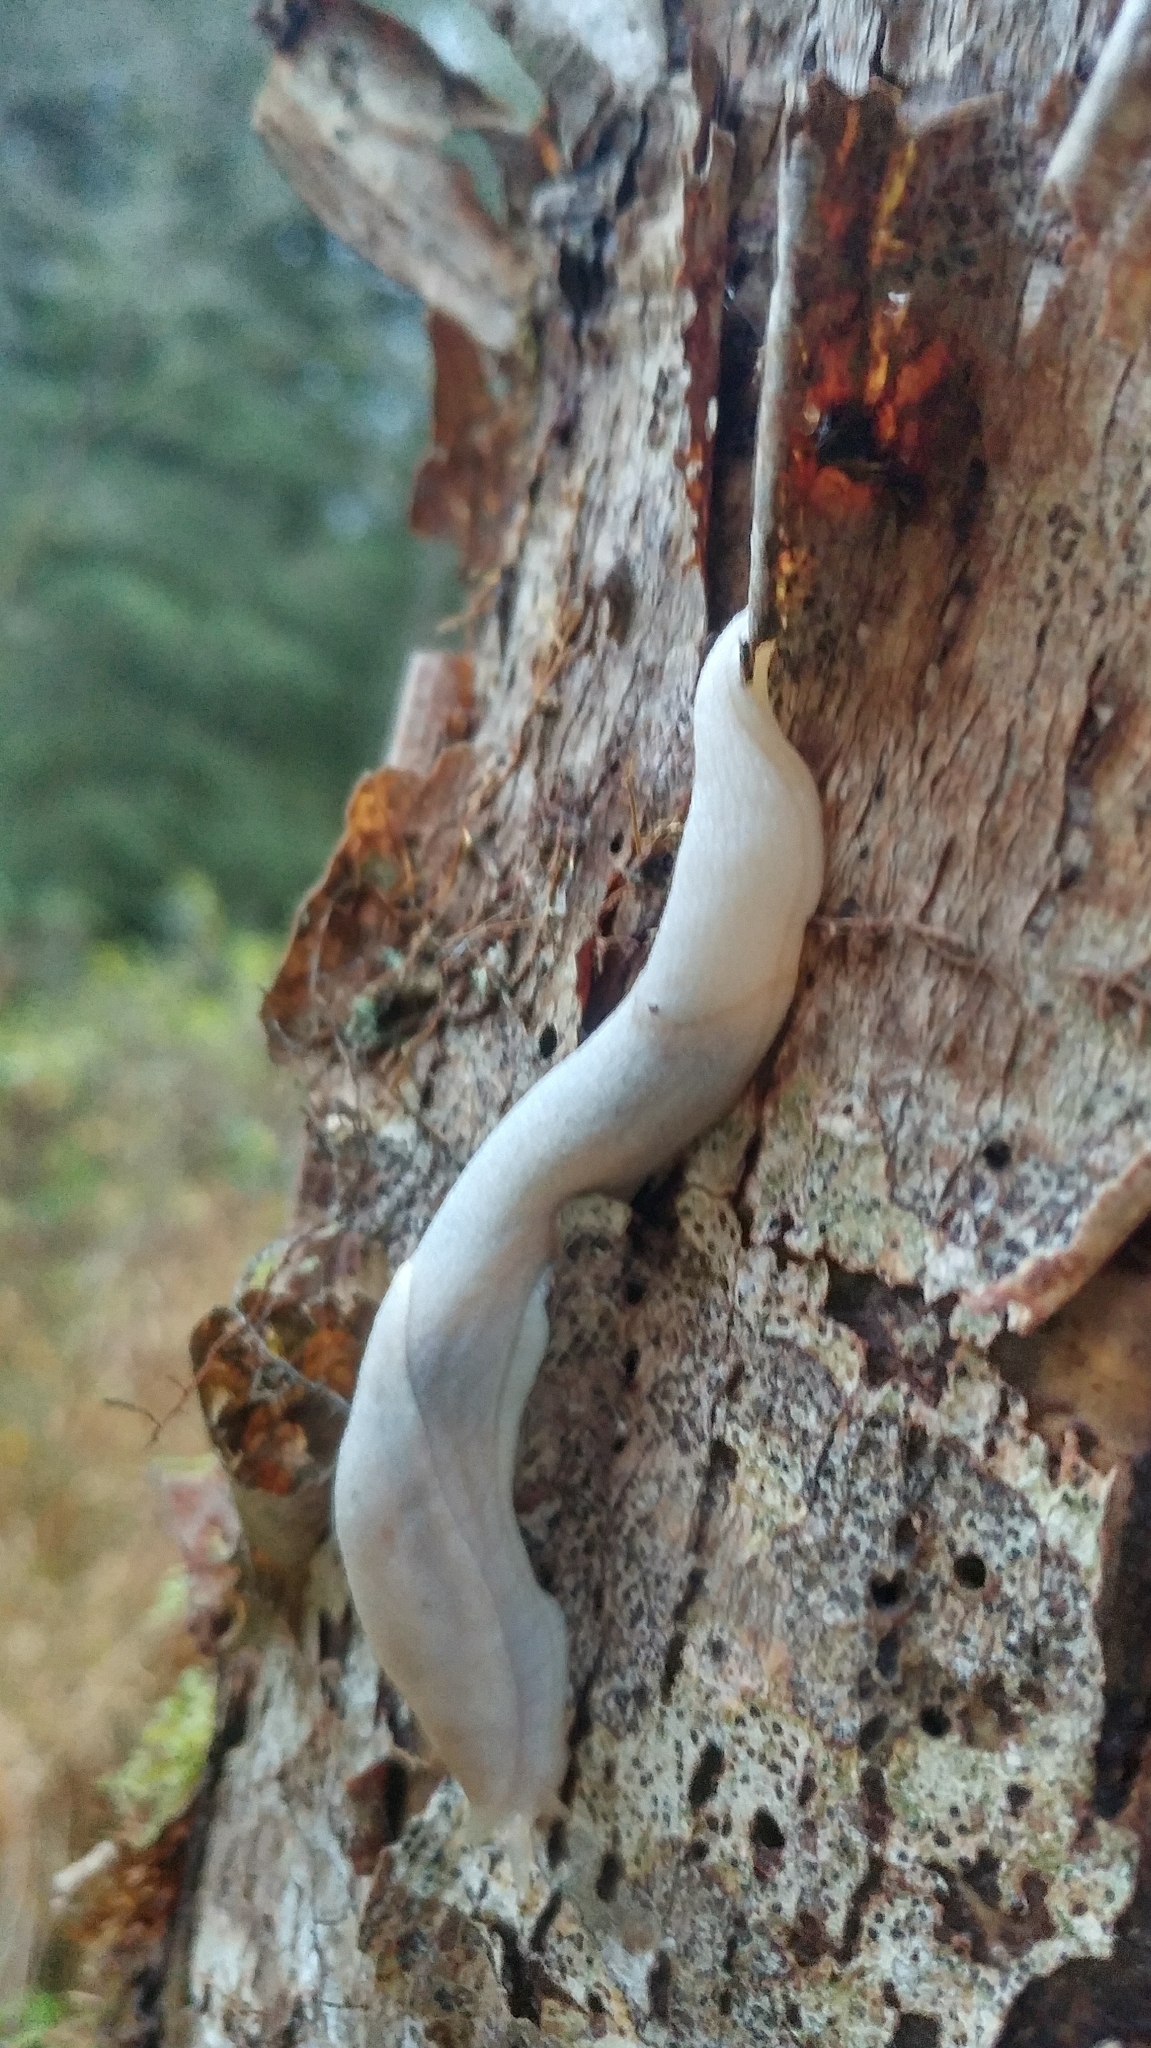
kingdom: Animalia
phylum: Mollusca
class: Gastropoda
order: Stylommatophora
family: Ariolimacidae
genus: Prophysaon
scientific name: Prophysaon foliolatum
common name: Yellow-bordered taildropper
